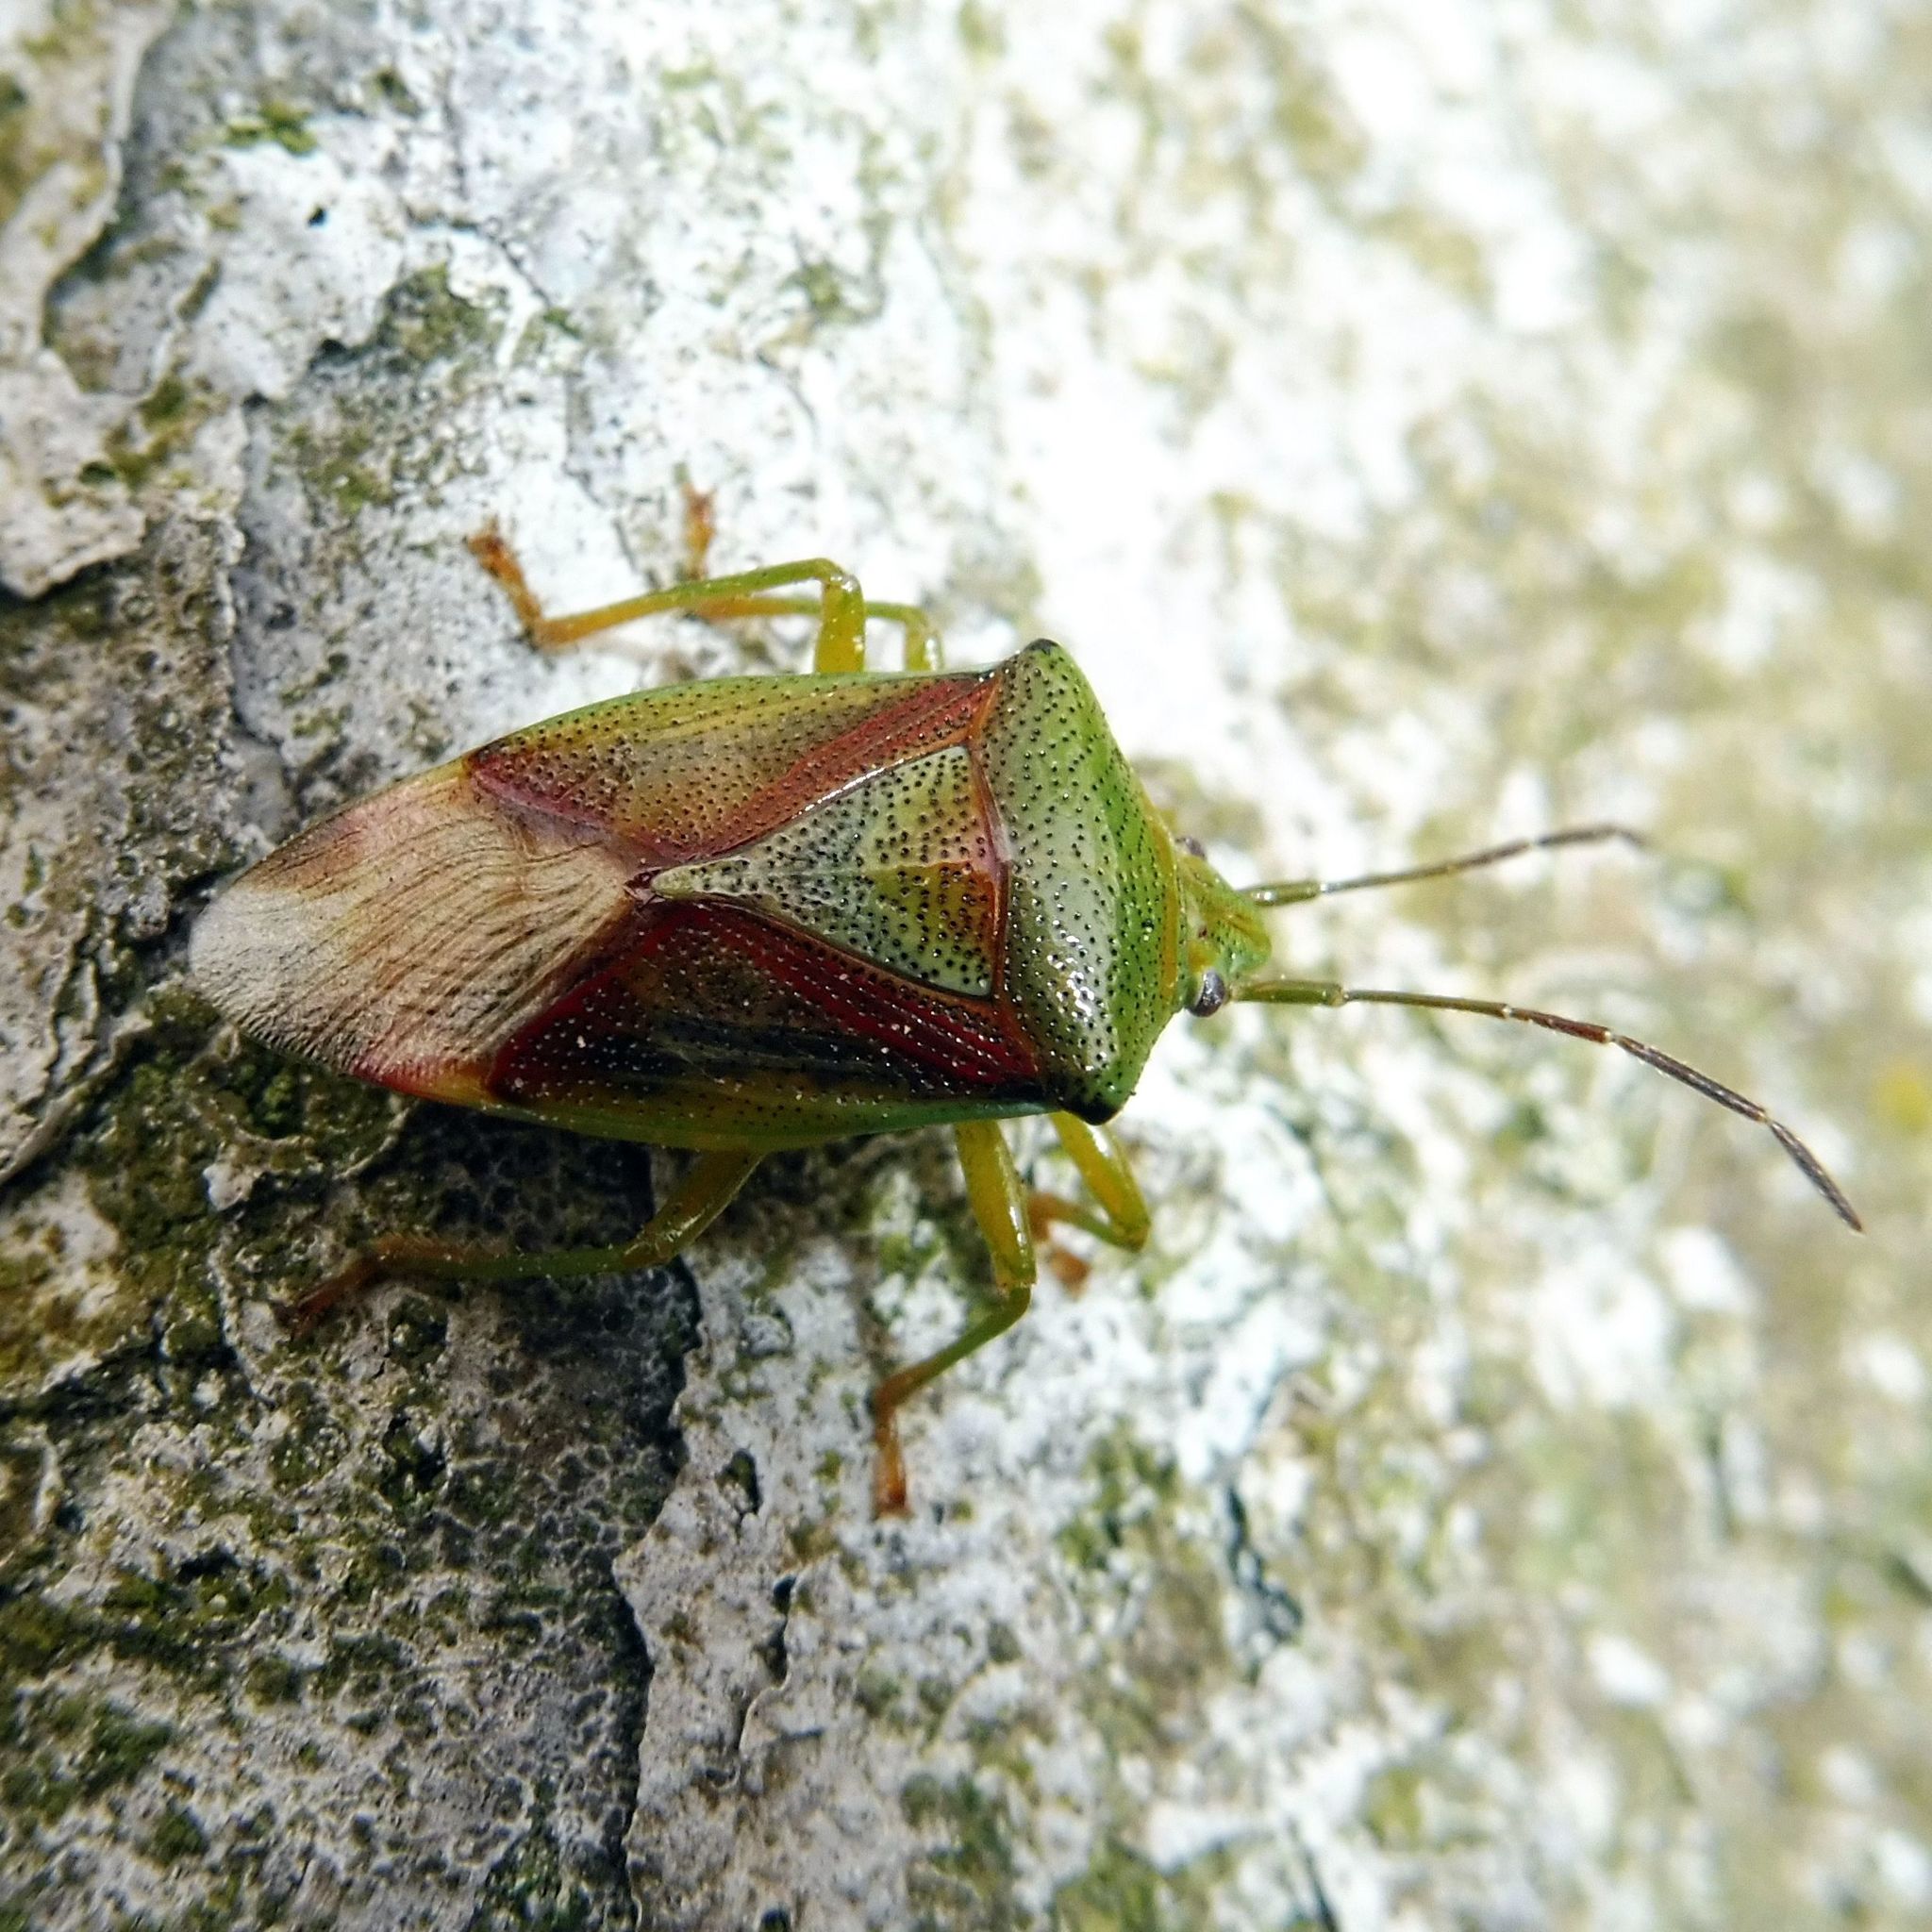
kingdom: Animalia
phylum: Arthropoda
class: Insecta
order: Hemiptera
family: Acanthosomatidae
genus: Elasmostethus
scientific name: Elasmostethus interstinctus
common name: Birch shieldbug
